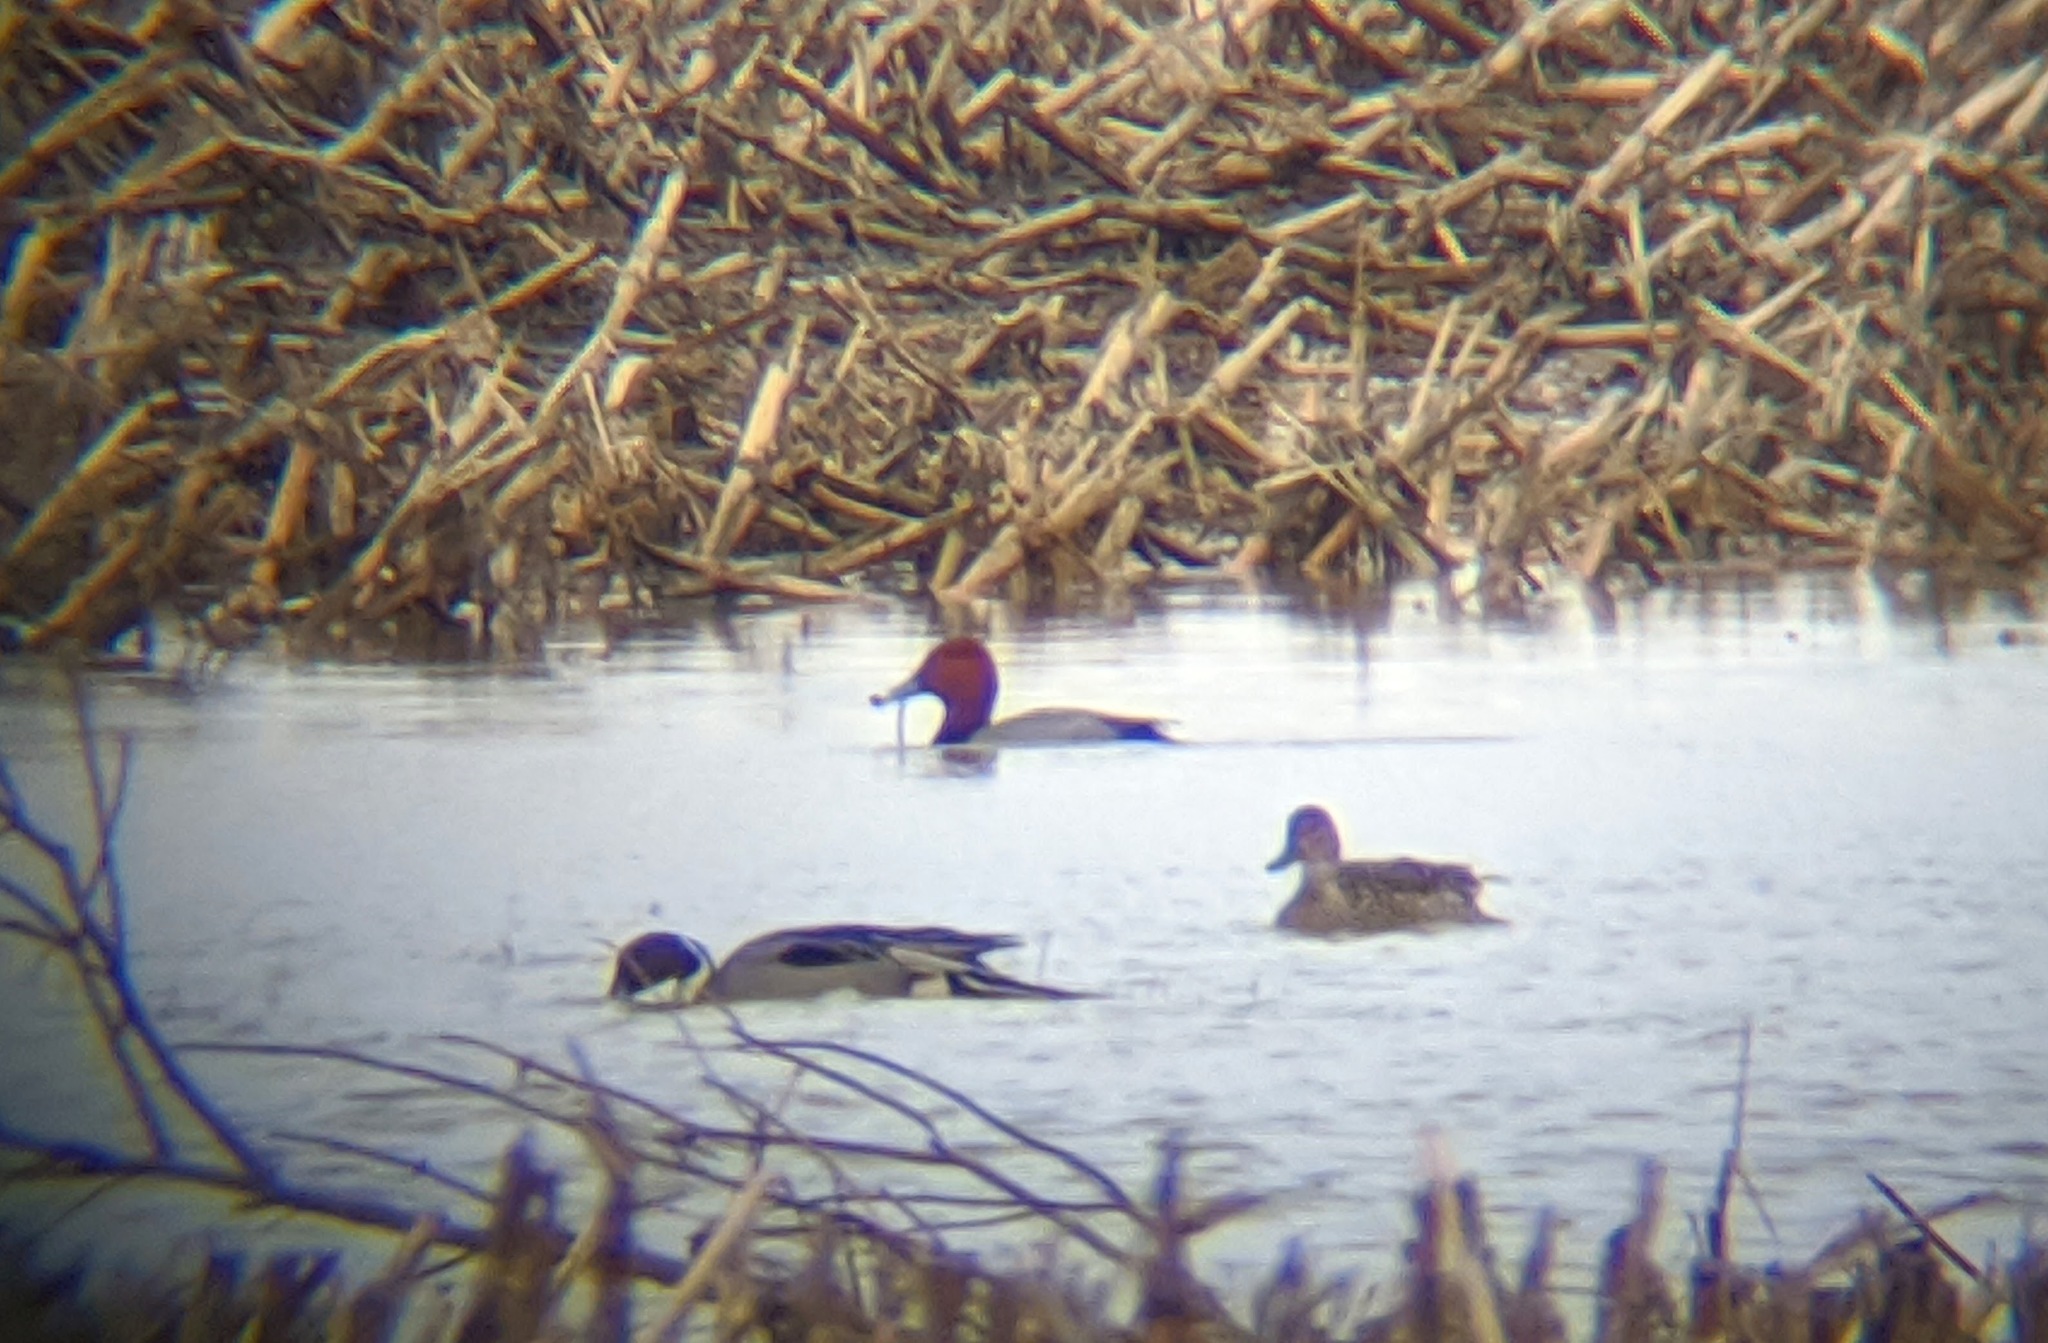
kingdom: Animalia
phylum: Chordata
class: Aves
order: Anseriformes
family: Anatidae
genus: Aythya
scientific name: Aythya americana
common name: Redhead
